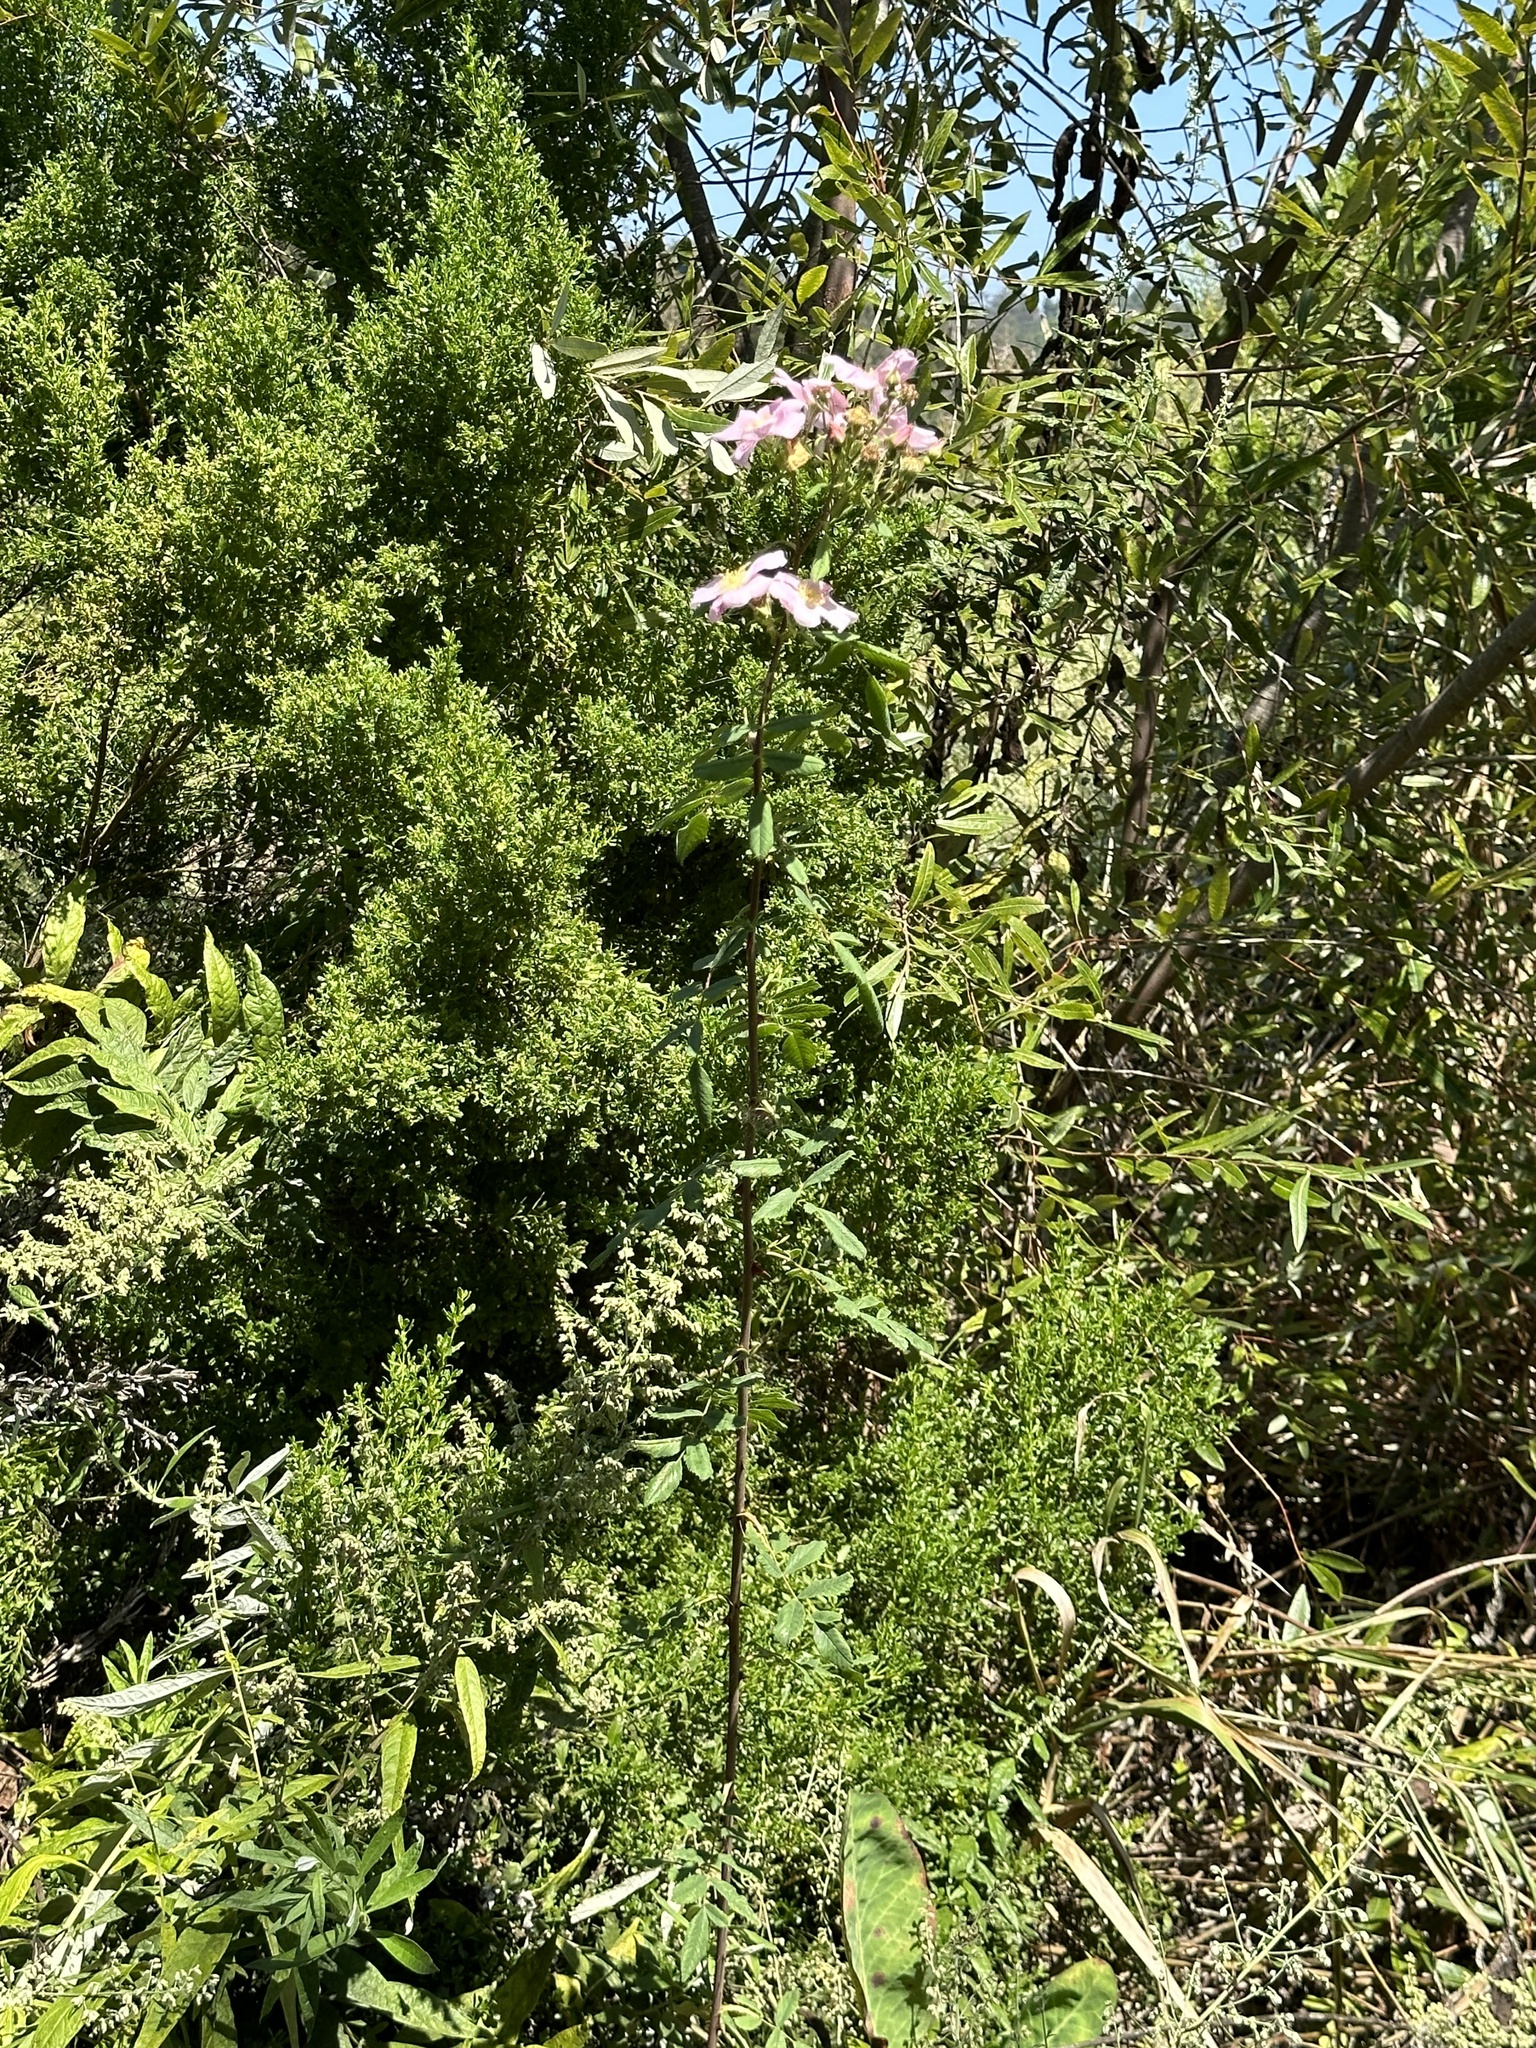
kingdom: Plantae
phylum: Tracheophyta
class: Magnoliopsida
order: Rosales
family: Rosaceae
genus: Rosa
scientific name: Rosa californica
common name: California rose
